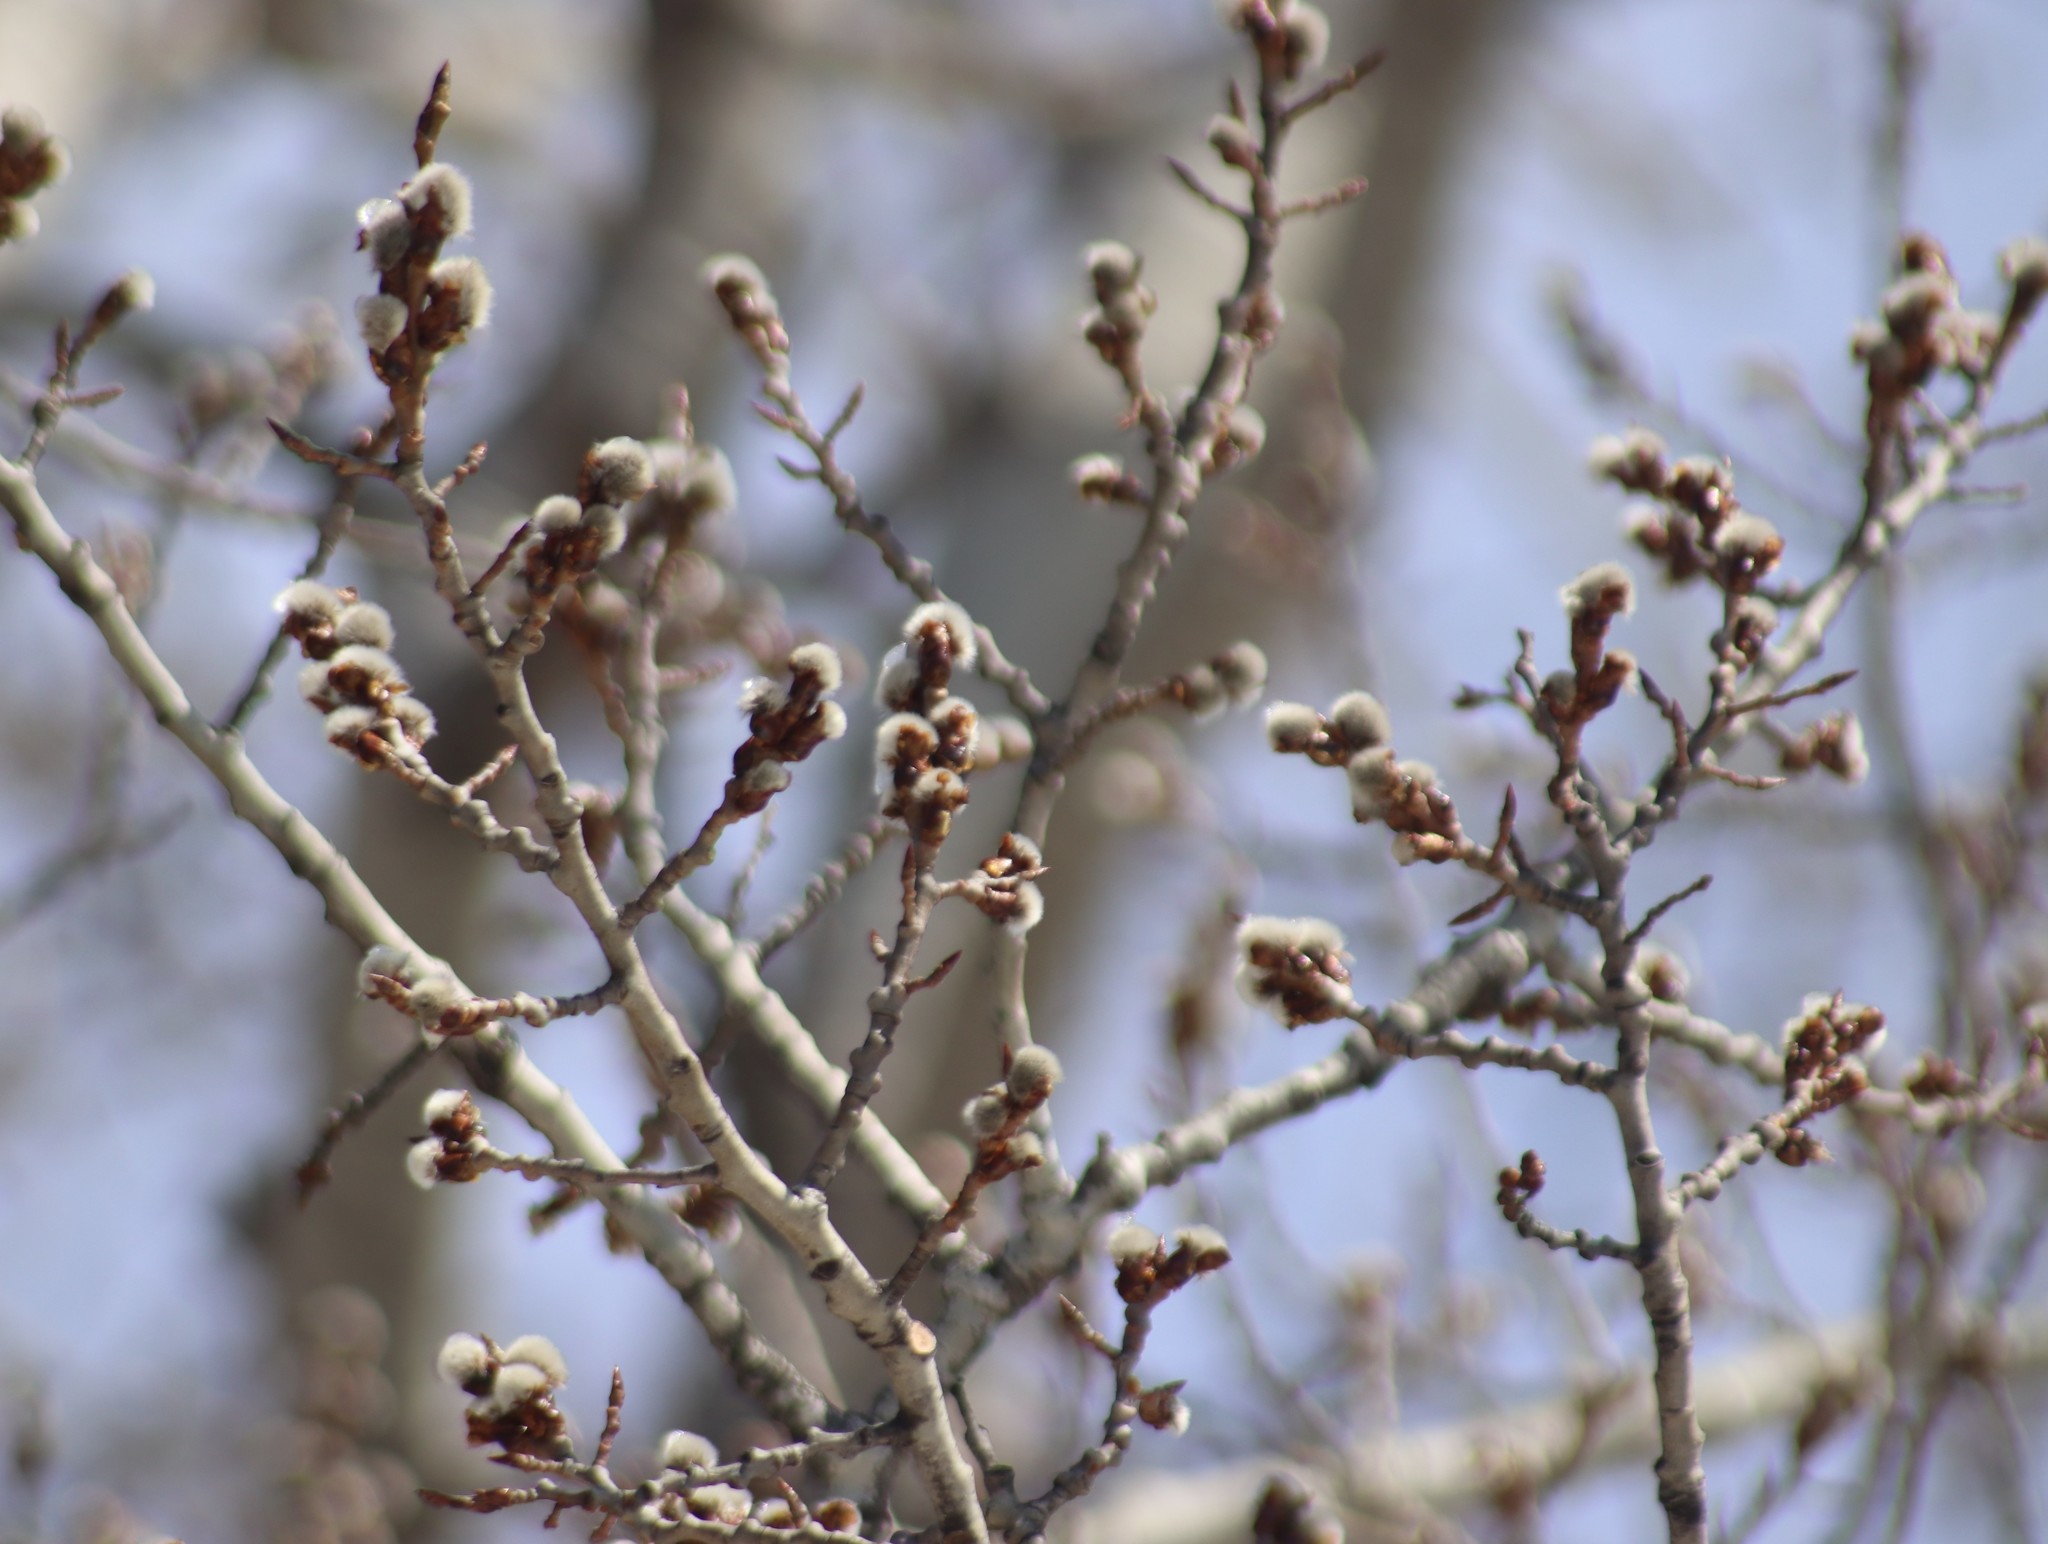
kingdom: Plantae
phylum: Tracheophyta
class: Magnoliopsida
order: Malpighiales
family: Salicaceae
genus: Populus
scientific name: Populus tremuloides
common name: Quaking aspen
